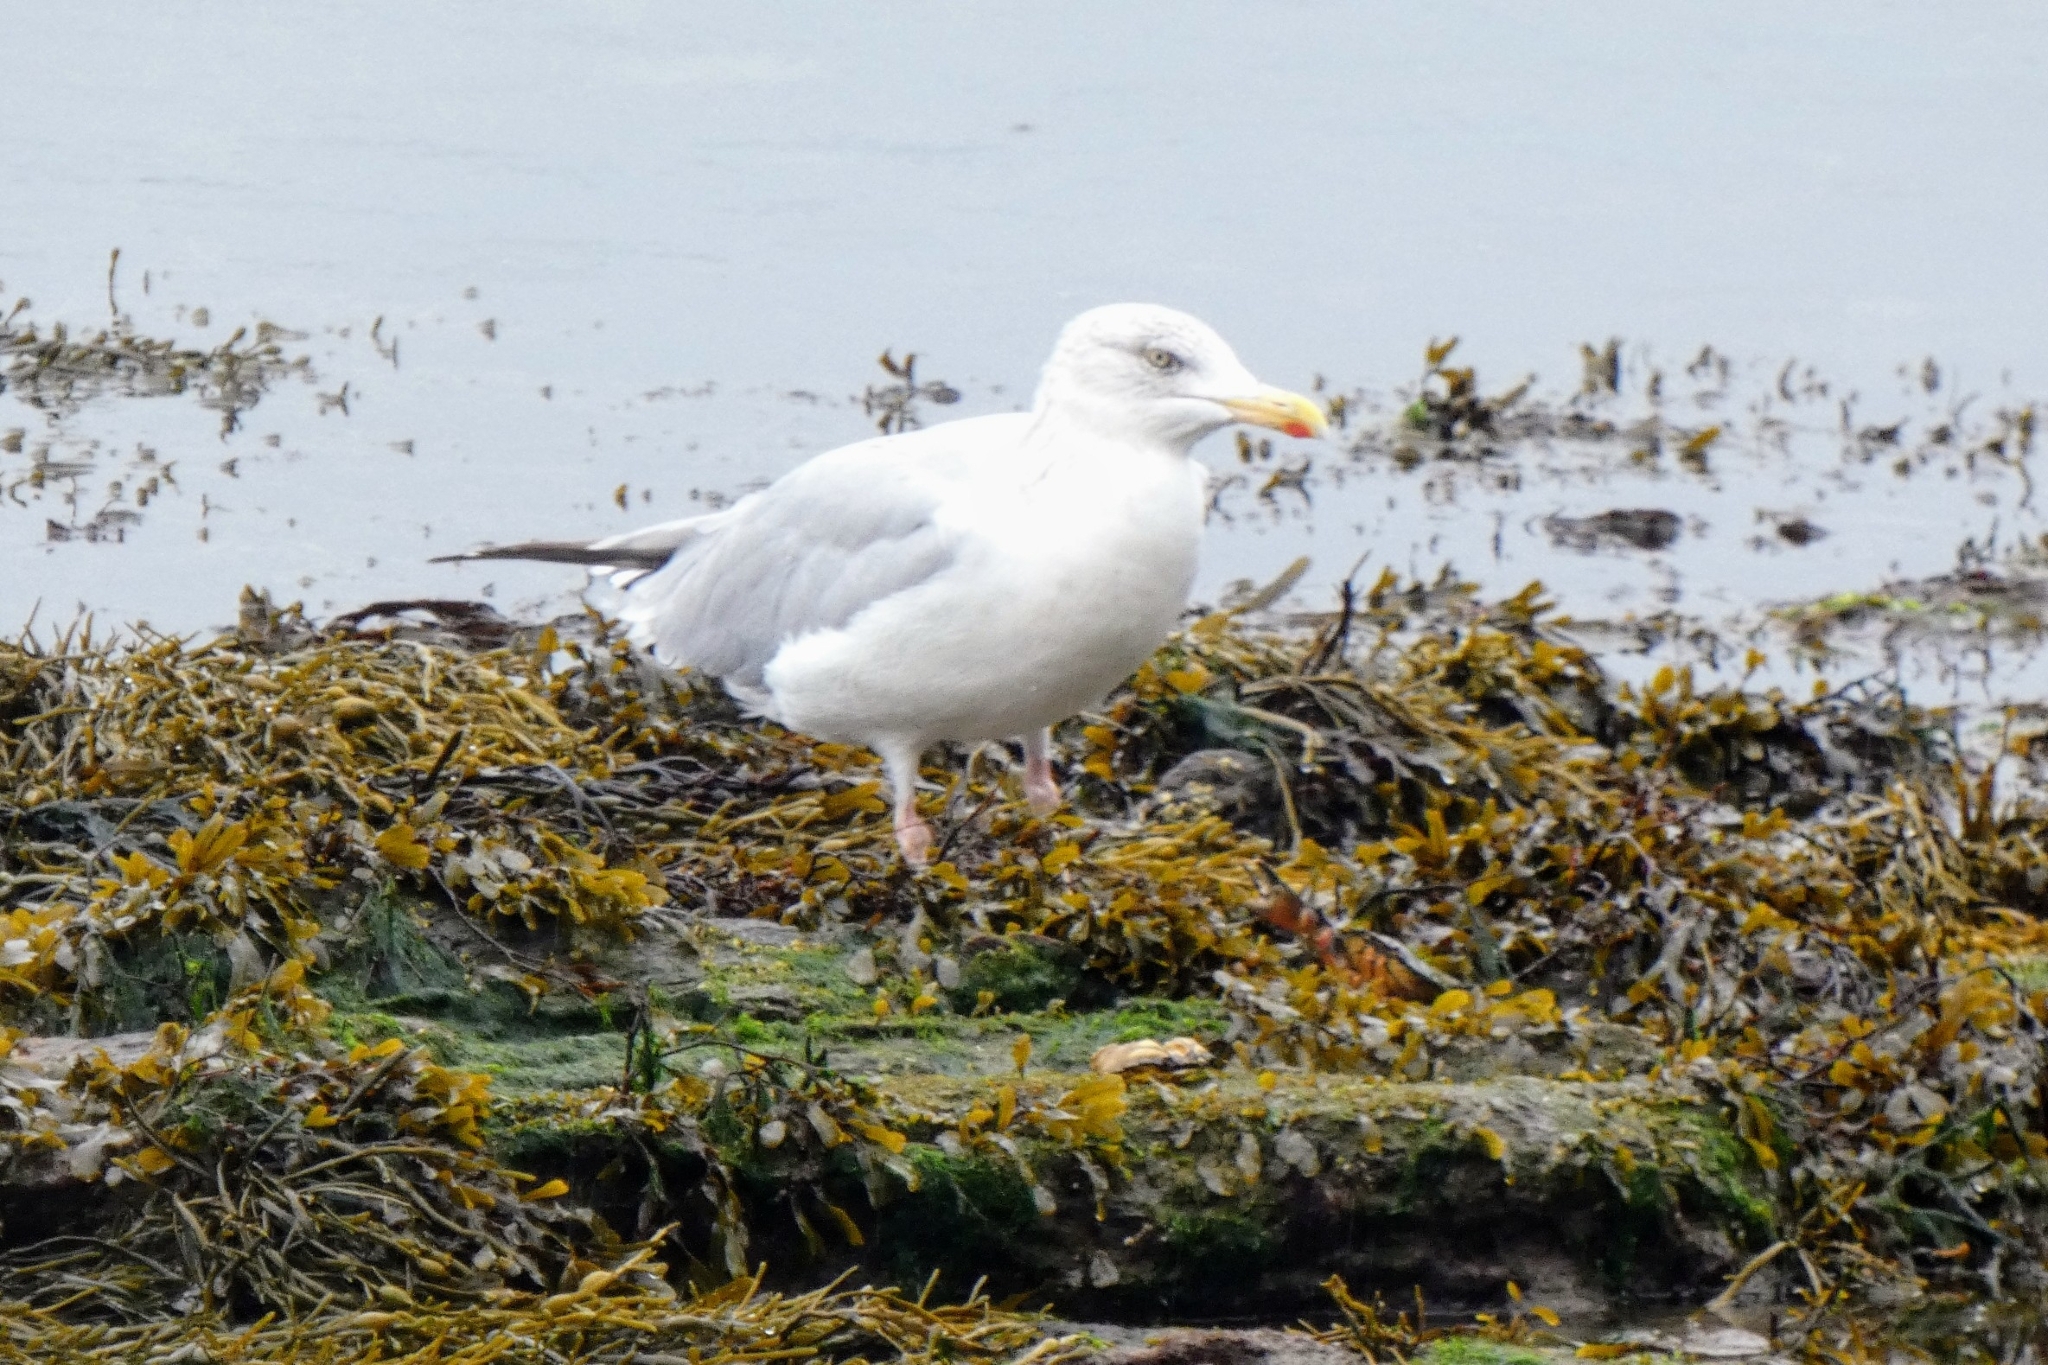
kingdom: Animalia
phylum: Chordata
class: Aves
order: Charadriiformes
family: Laridae
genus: Larus
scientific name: Larus argentatus
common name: Herring gull
